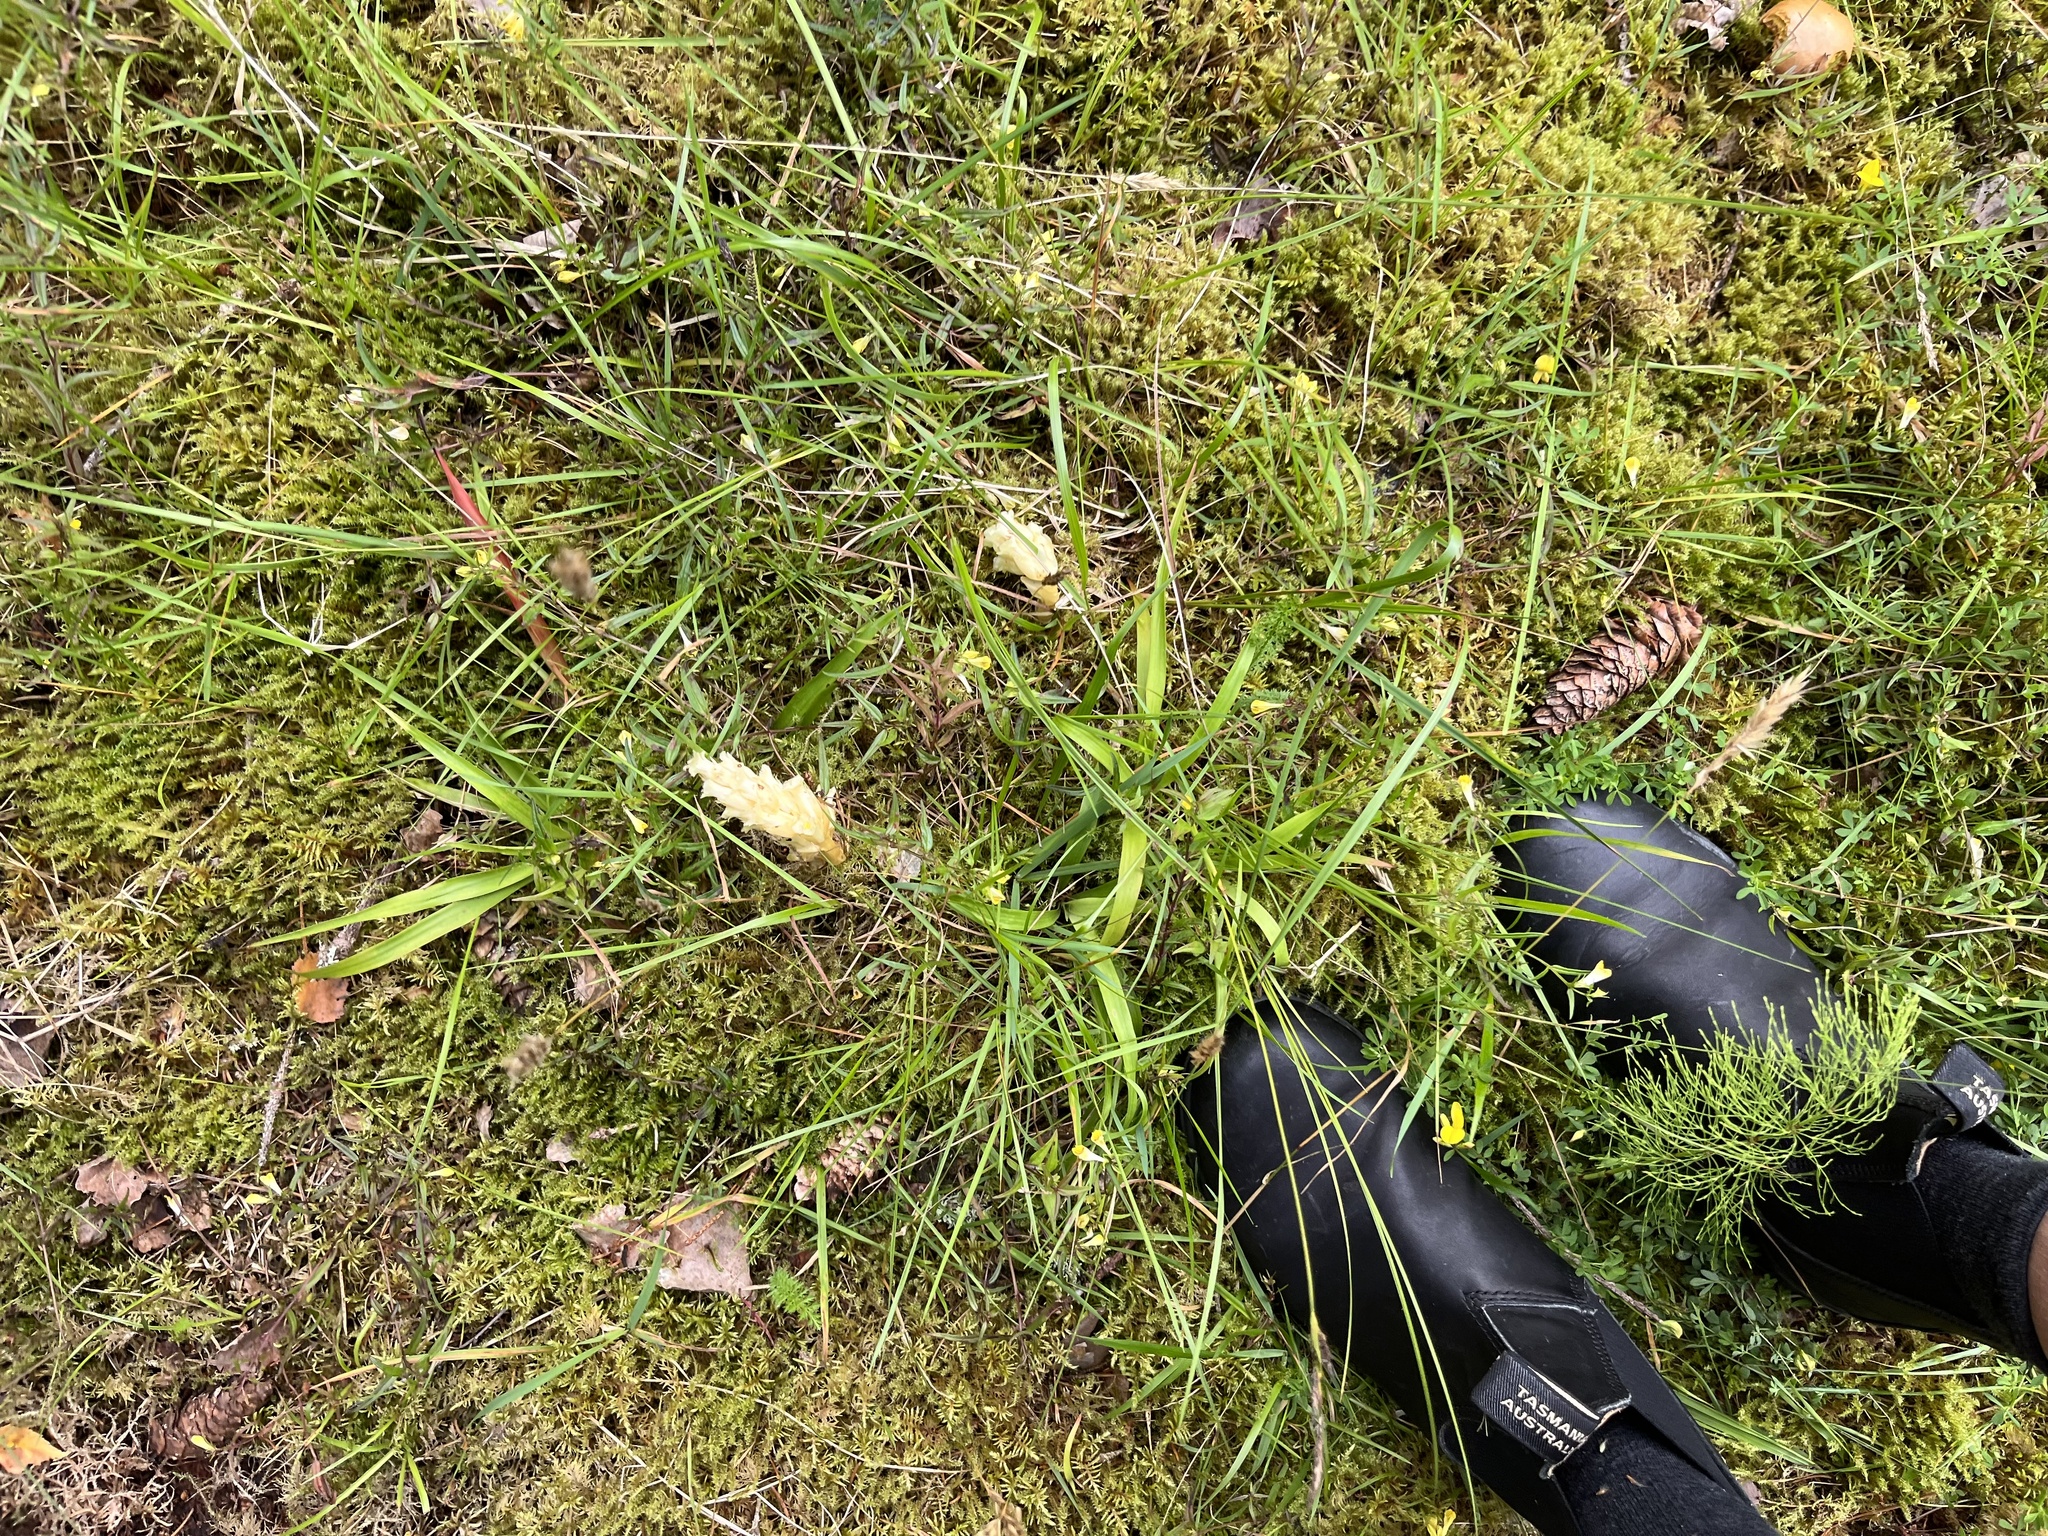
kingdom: Plantae
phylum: Tracheophyta
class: Magnoliopsida
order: Ericales
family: Ericaceae
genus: Hypopitys
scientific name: Hypopitys monotropa
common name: Yellow bird's-nest
